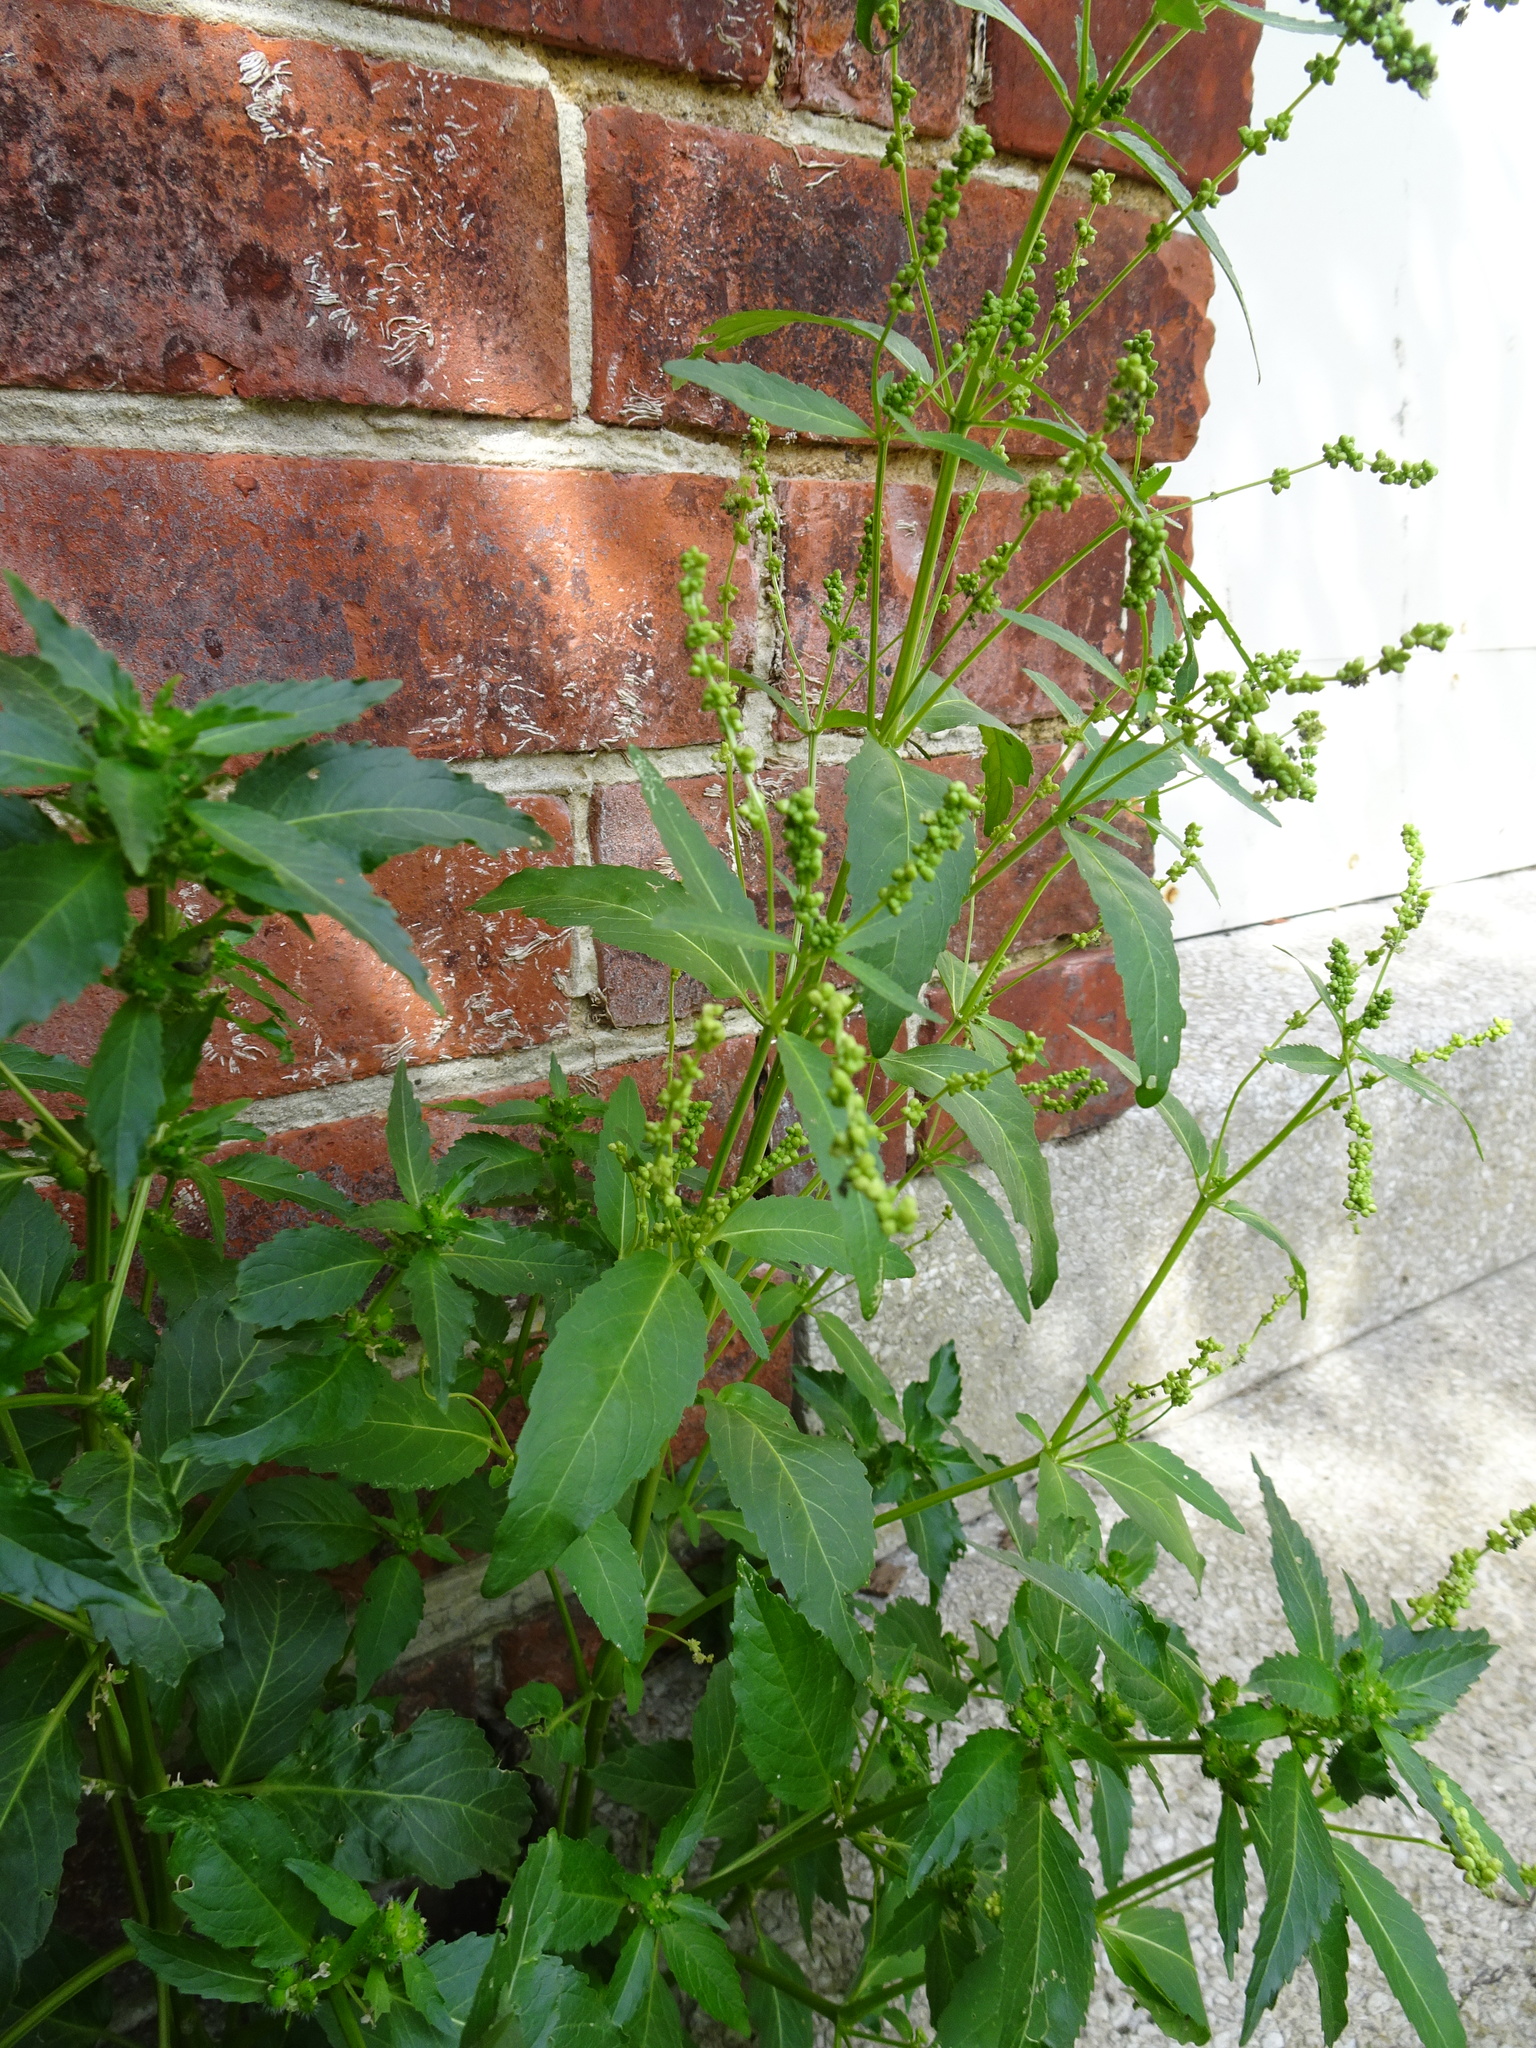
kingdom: Plantae
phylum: Tracheophyta
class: Magnoliopsida
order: Malpighiales
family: Euphorbiaceae
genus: Mercurialis
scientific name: Mercurialis annua
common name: Annual mercury
